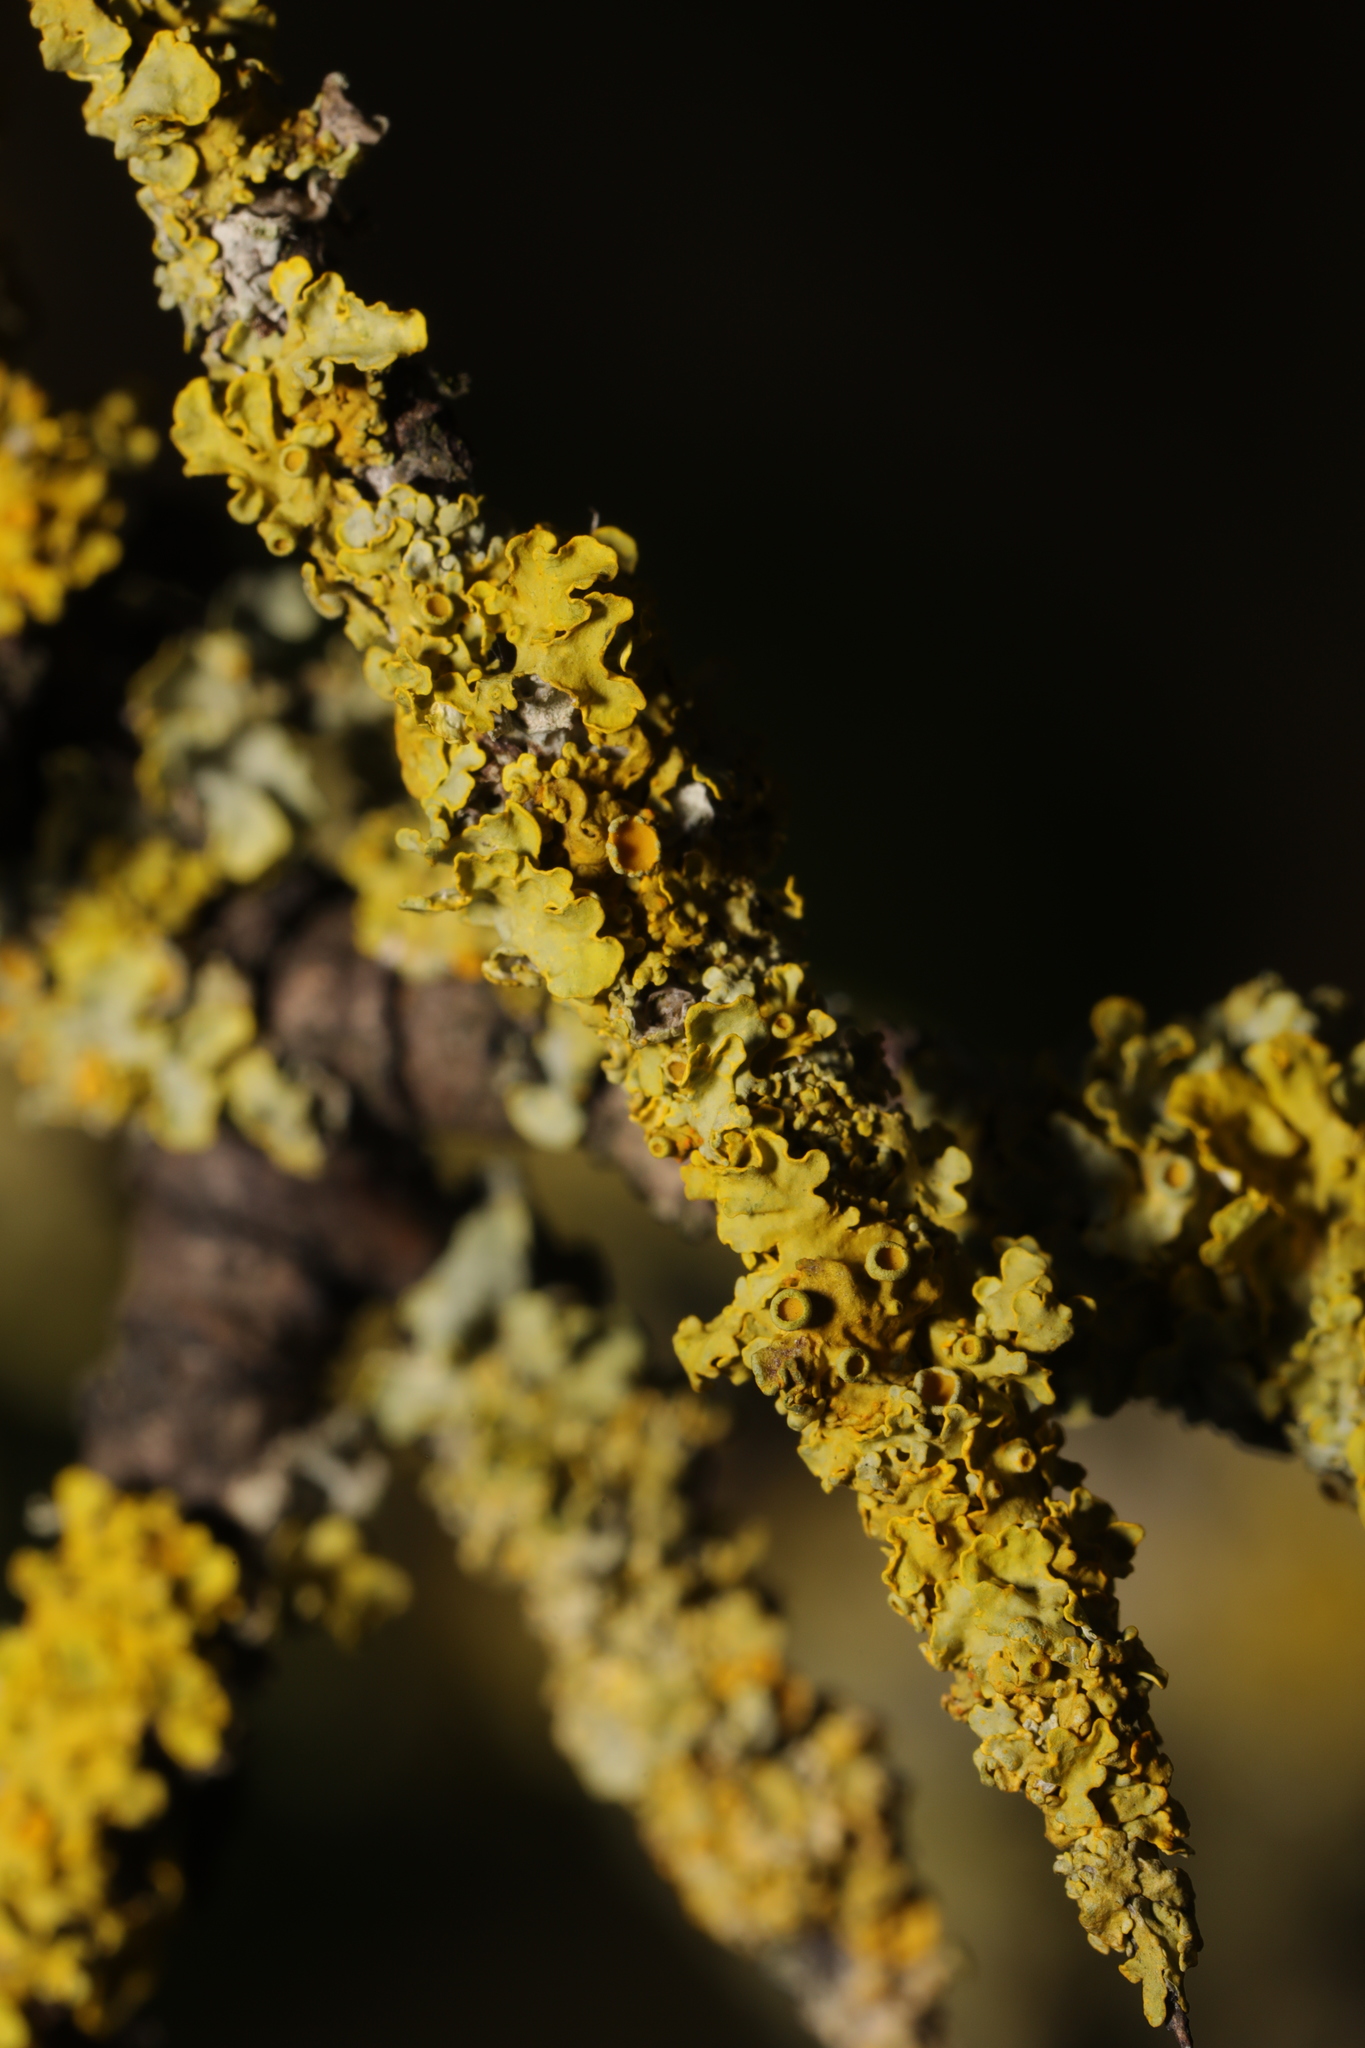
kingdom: Fungi
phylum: Ascomycota
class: Lecanoromycetes
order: Teloschistales
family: Teloschistaceae
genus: Xanthoria
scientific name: Xanthoria parietina
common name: Common orange lichen
